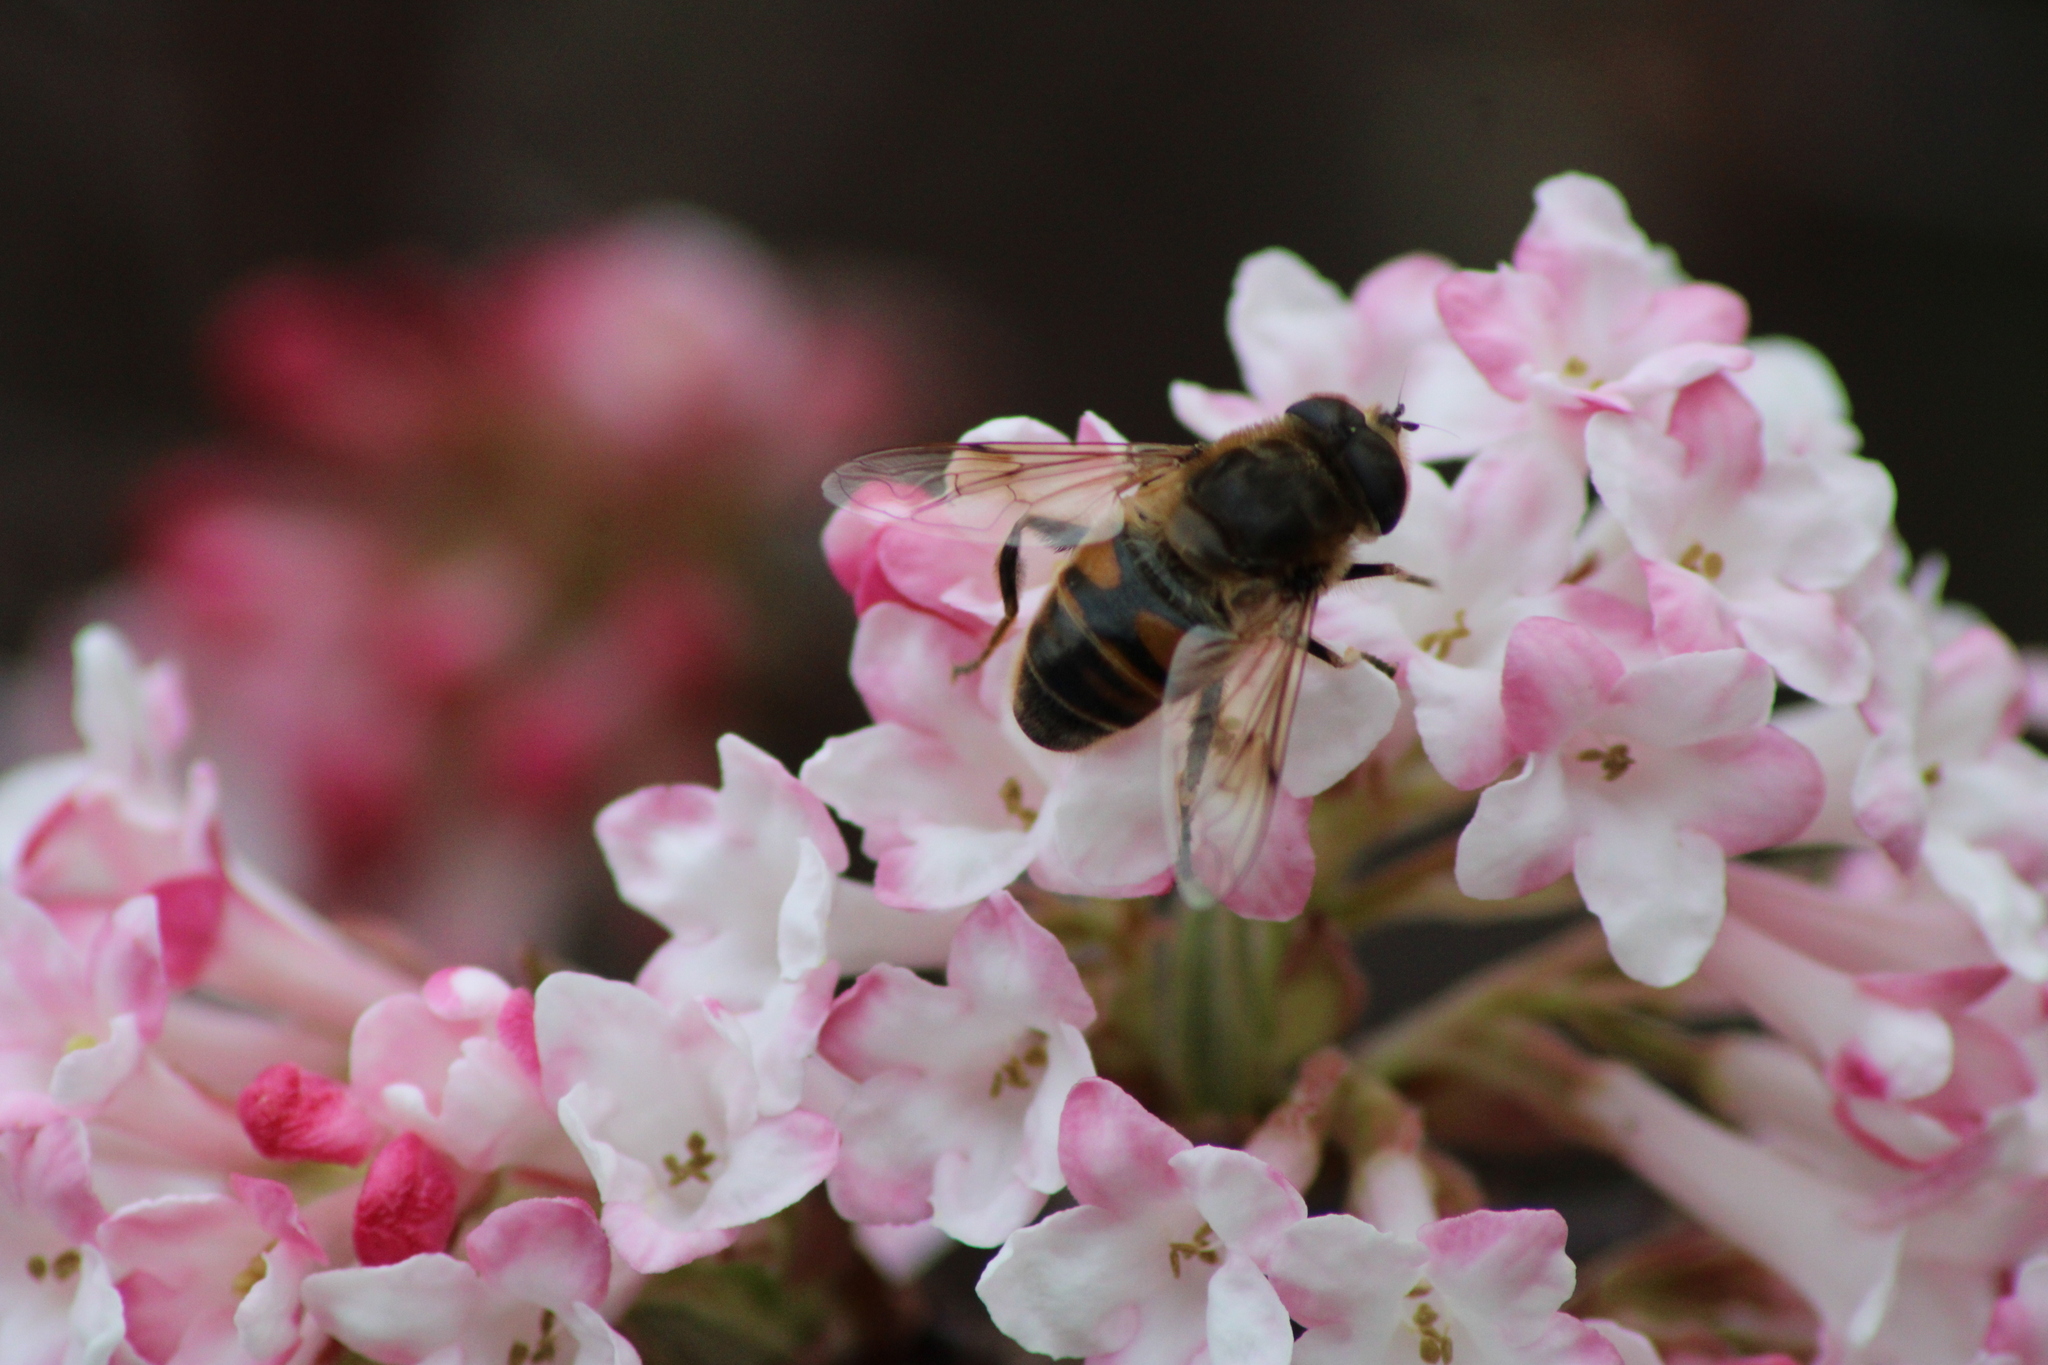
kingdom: Animalia
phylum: Arthropoda
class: Insecta
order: Diptera
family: Syrphidae
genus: Eristalis
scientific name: Eristalis tenax
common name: Drone fly
